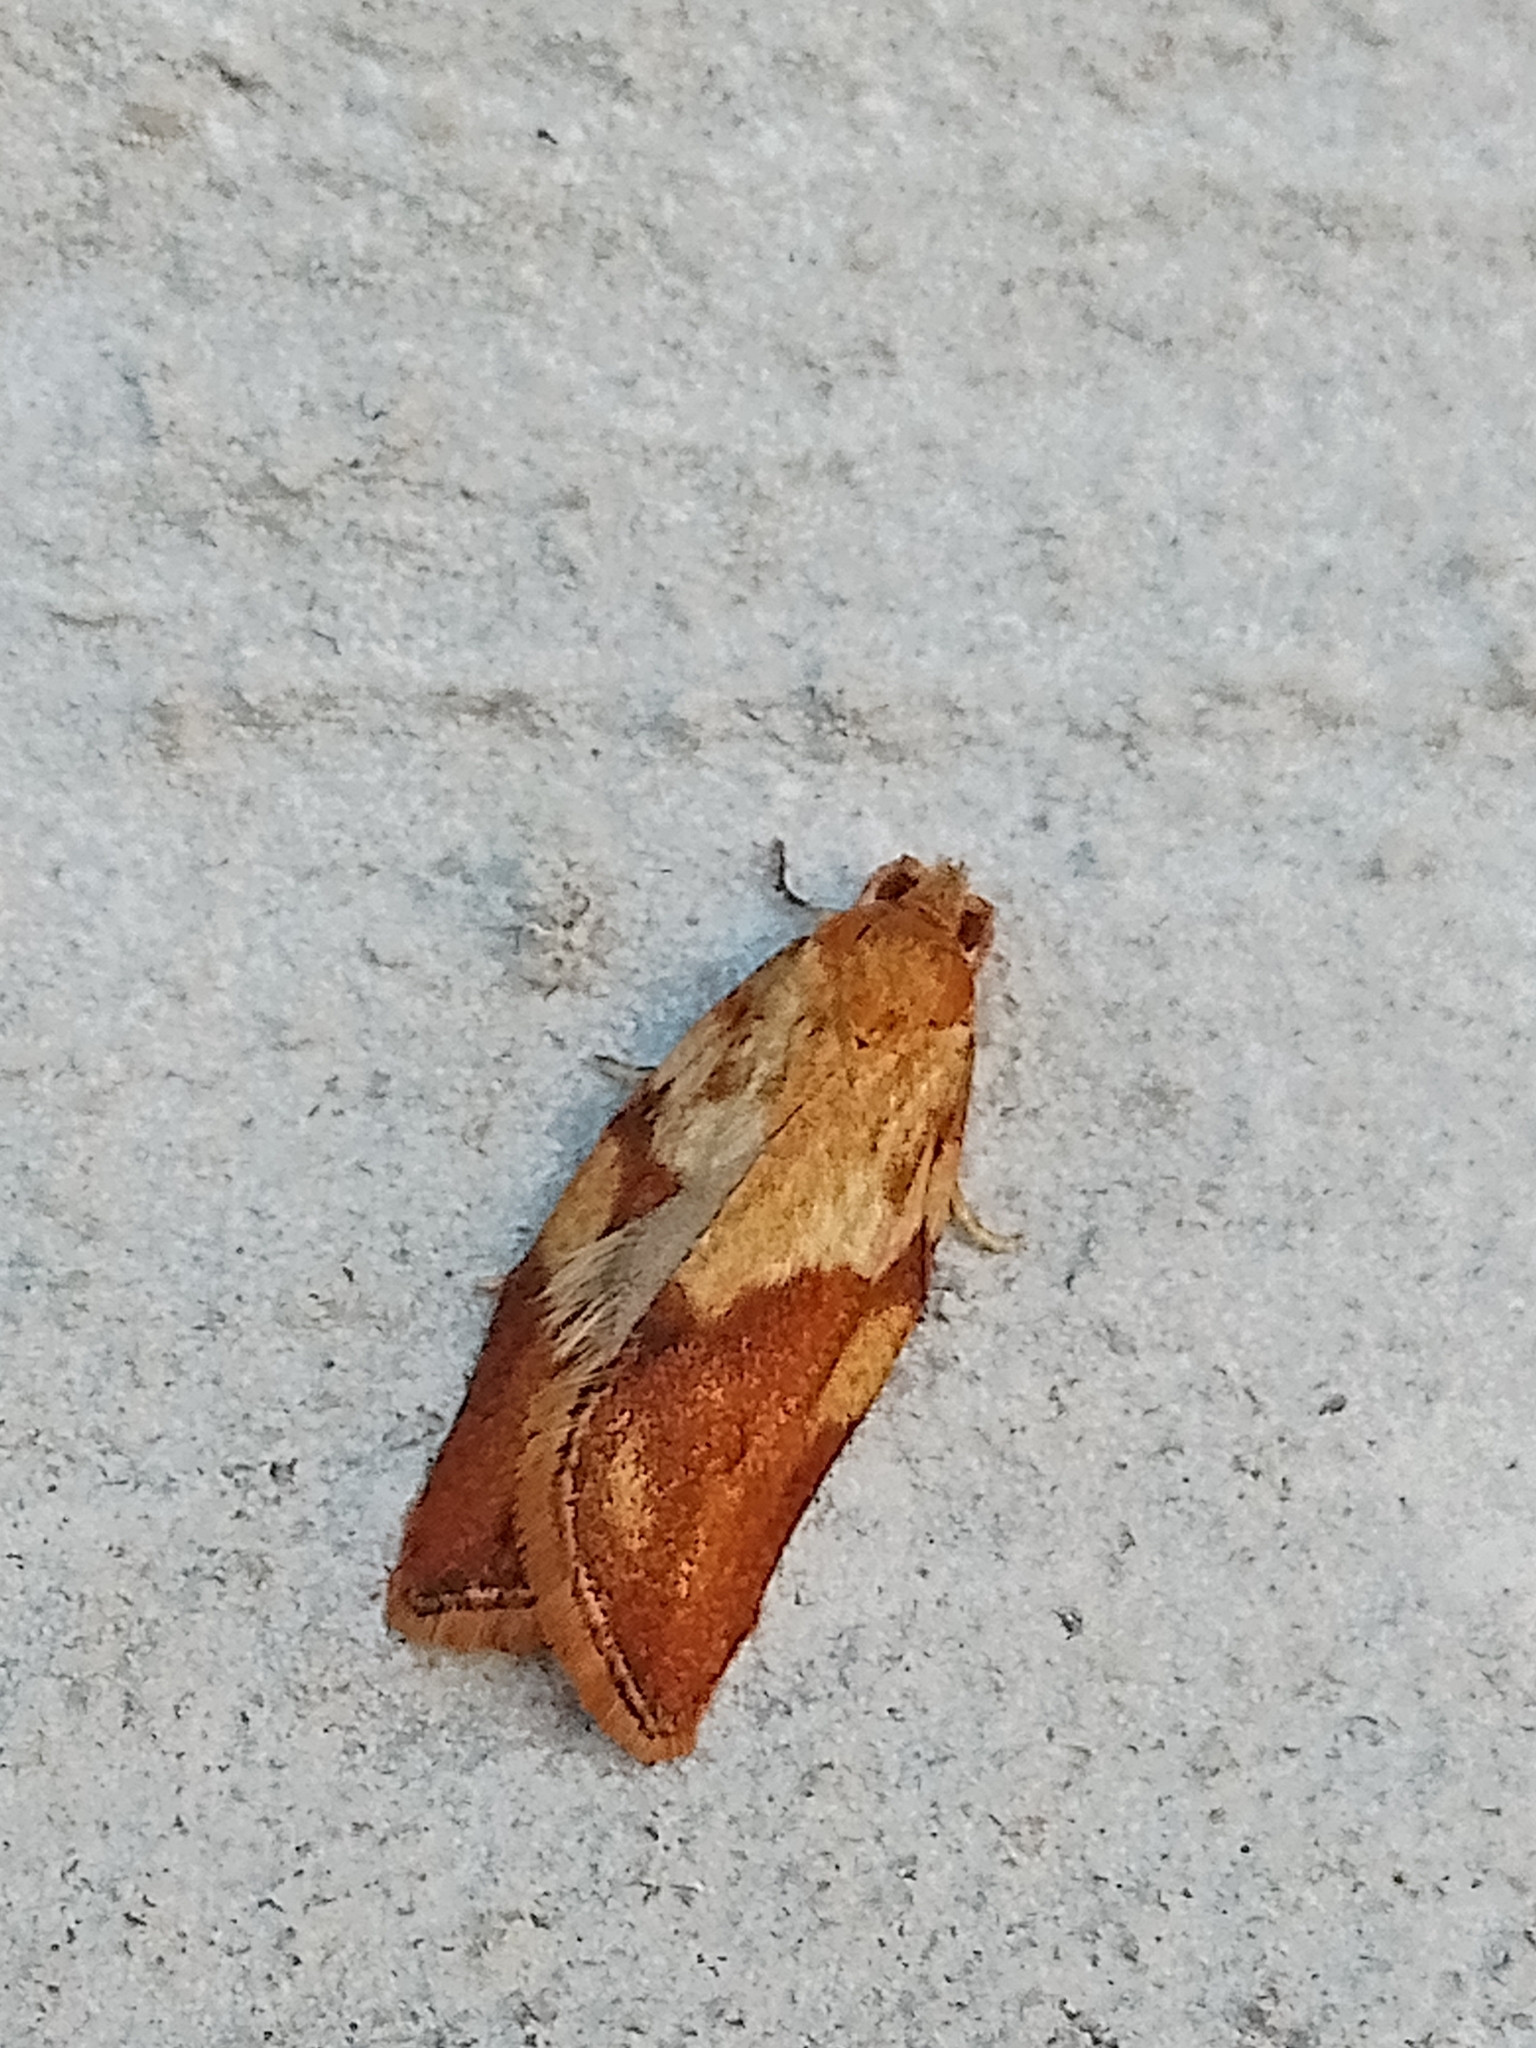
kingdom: Animalia
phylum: Arthropoda
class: Insecta
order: Lepidoptera
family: Tortricidae
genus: Epiphyas
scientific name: Epiphyas postvittana
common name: Light brown apple moth
